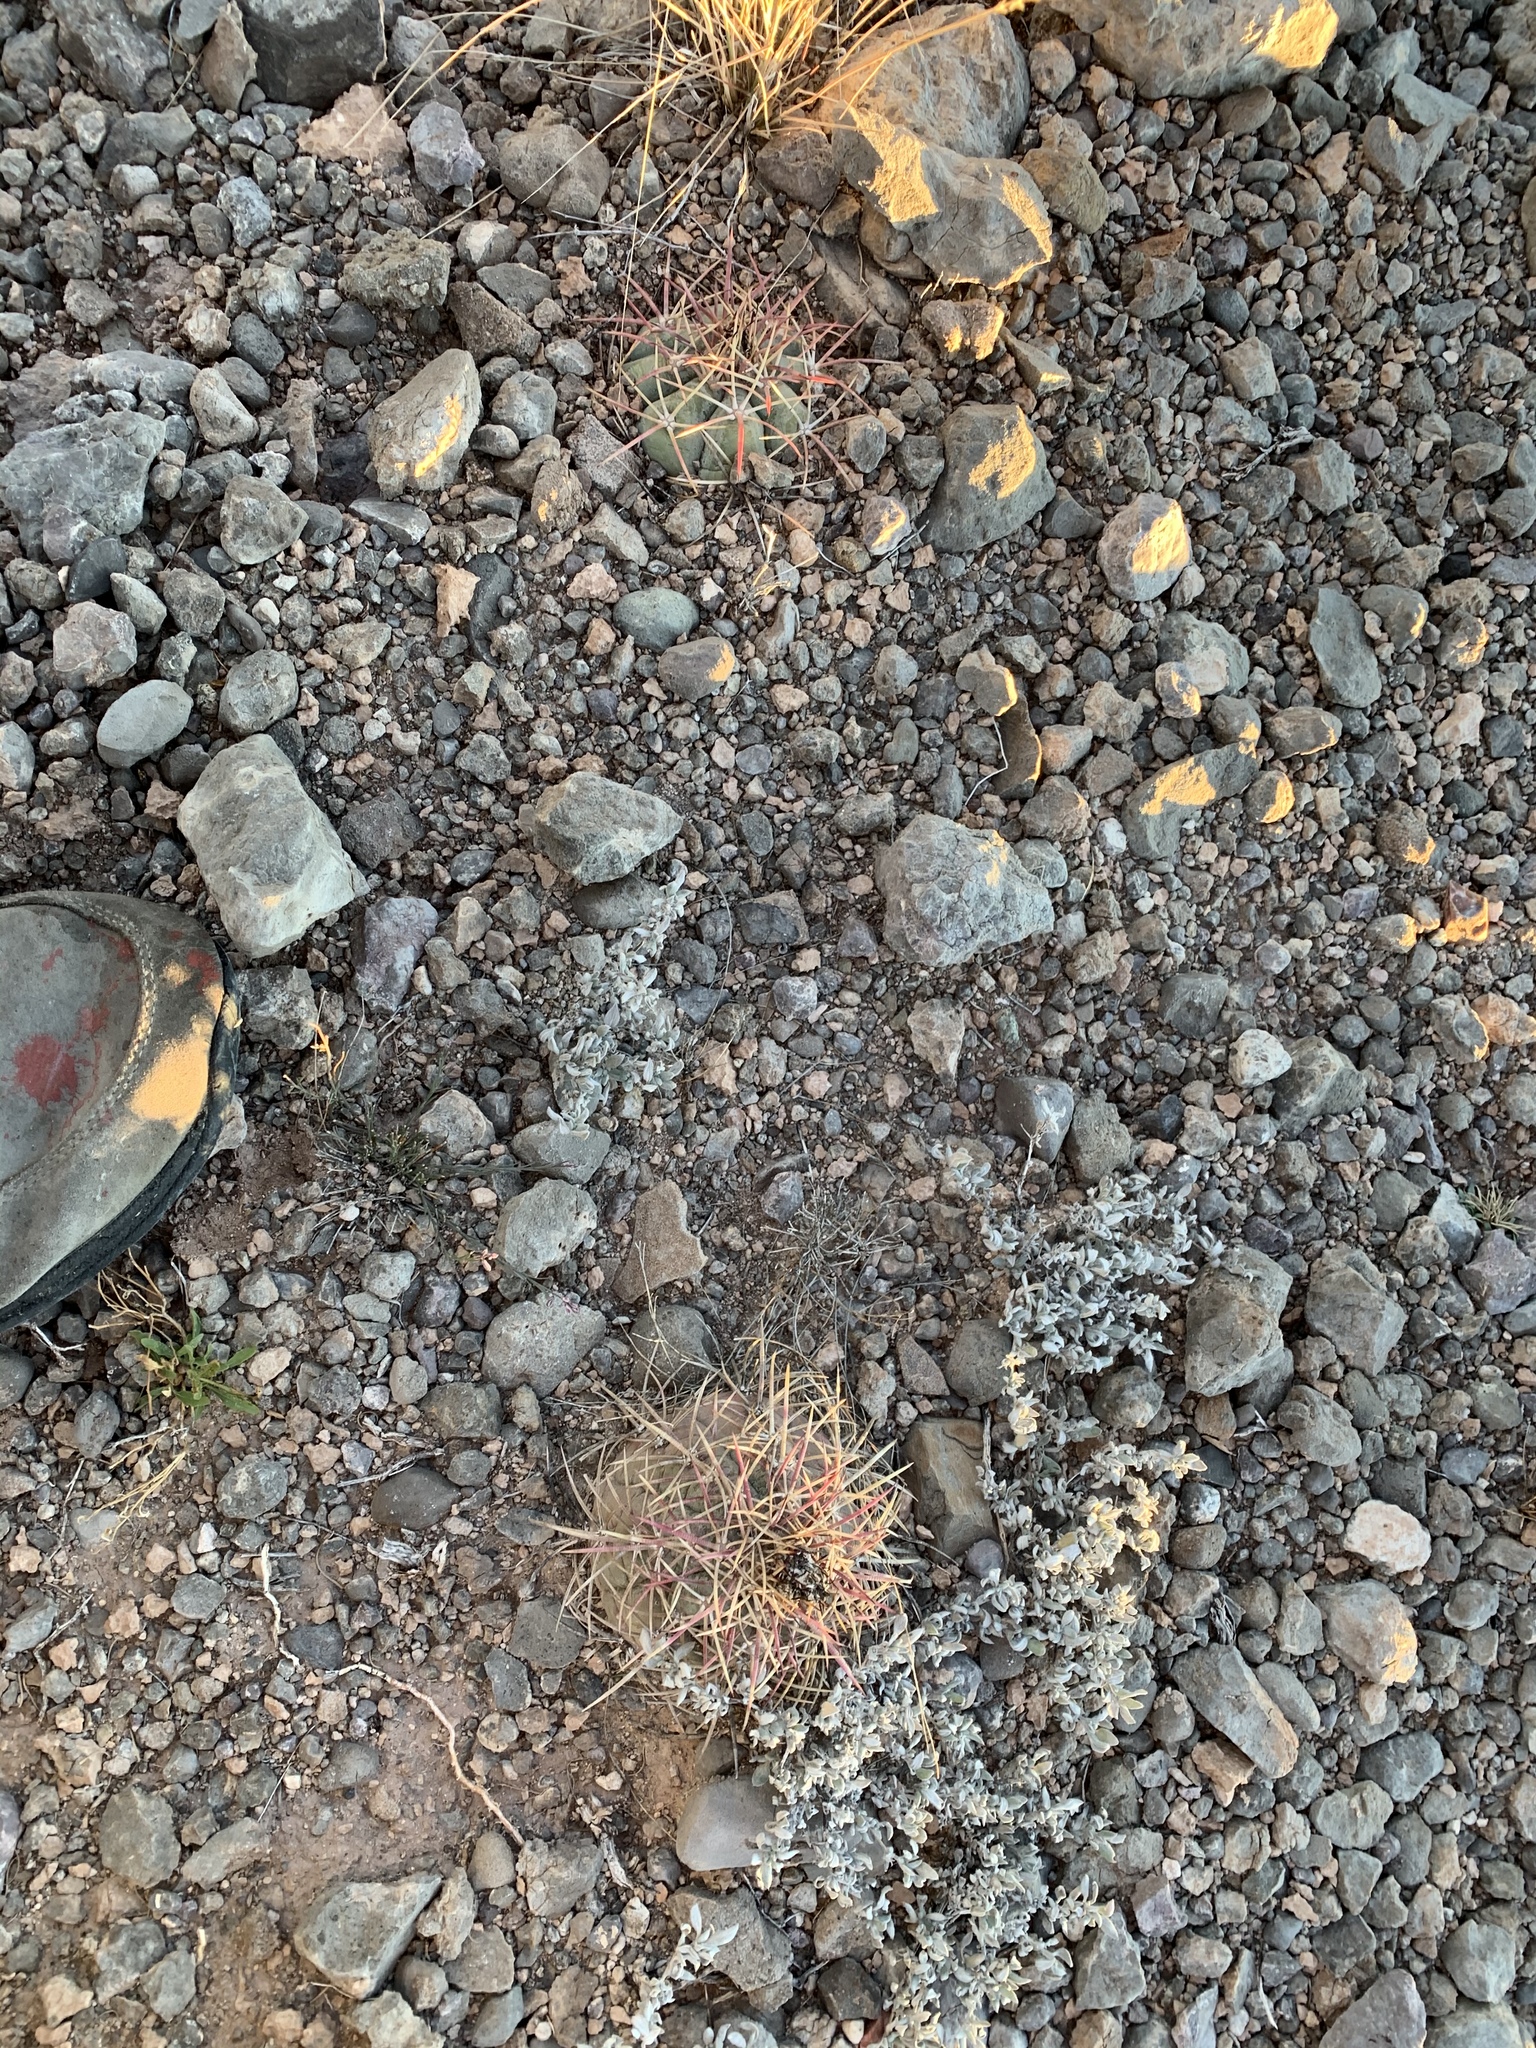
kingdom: Plantae
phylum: Tracheophyta
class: Magnoliopsida
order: Caryophyllales
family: Cactaceae
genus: Echinocactus
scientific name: Echinocactus horizonthalonius
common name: Devilshead
